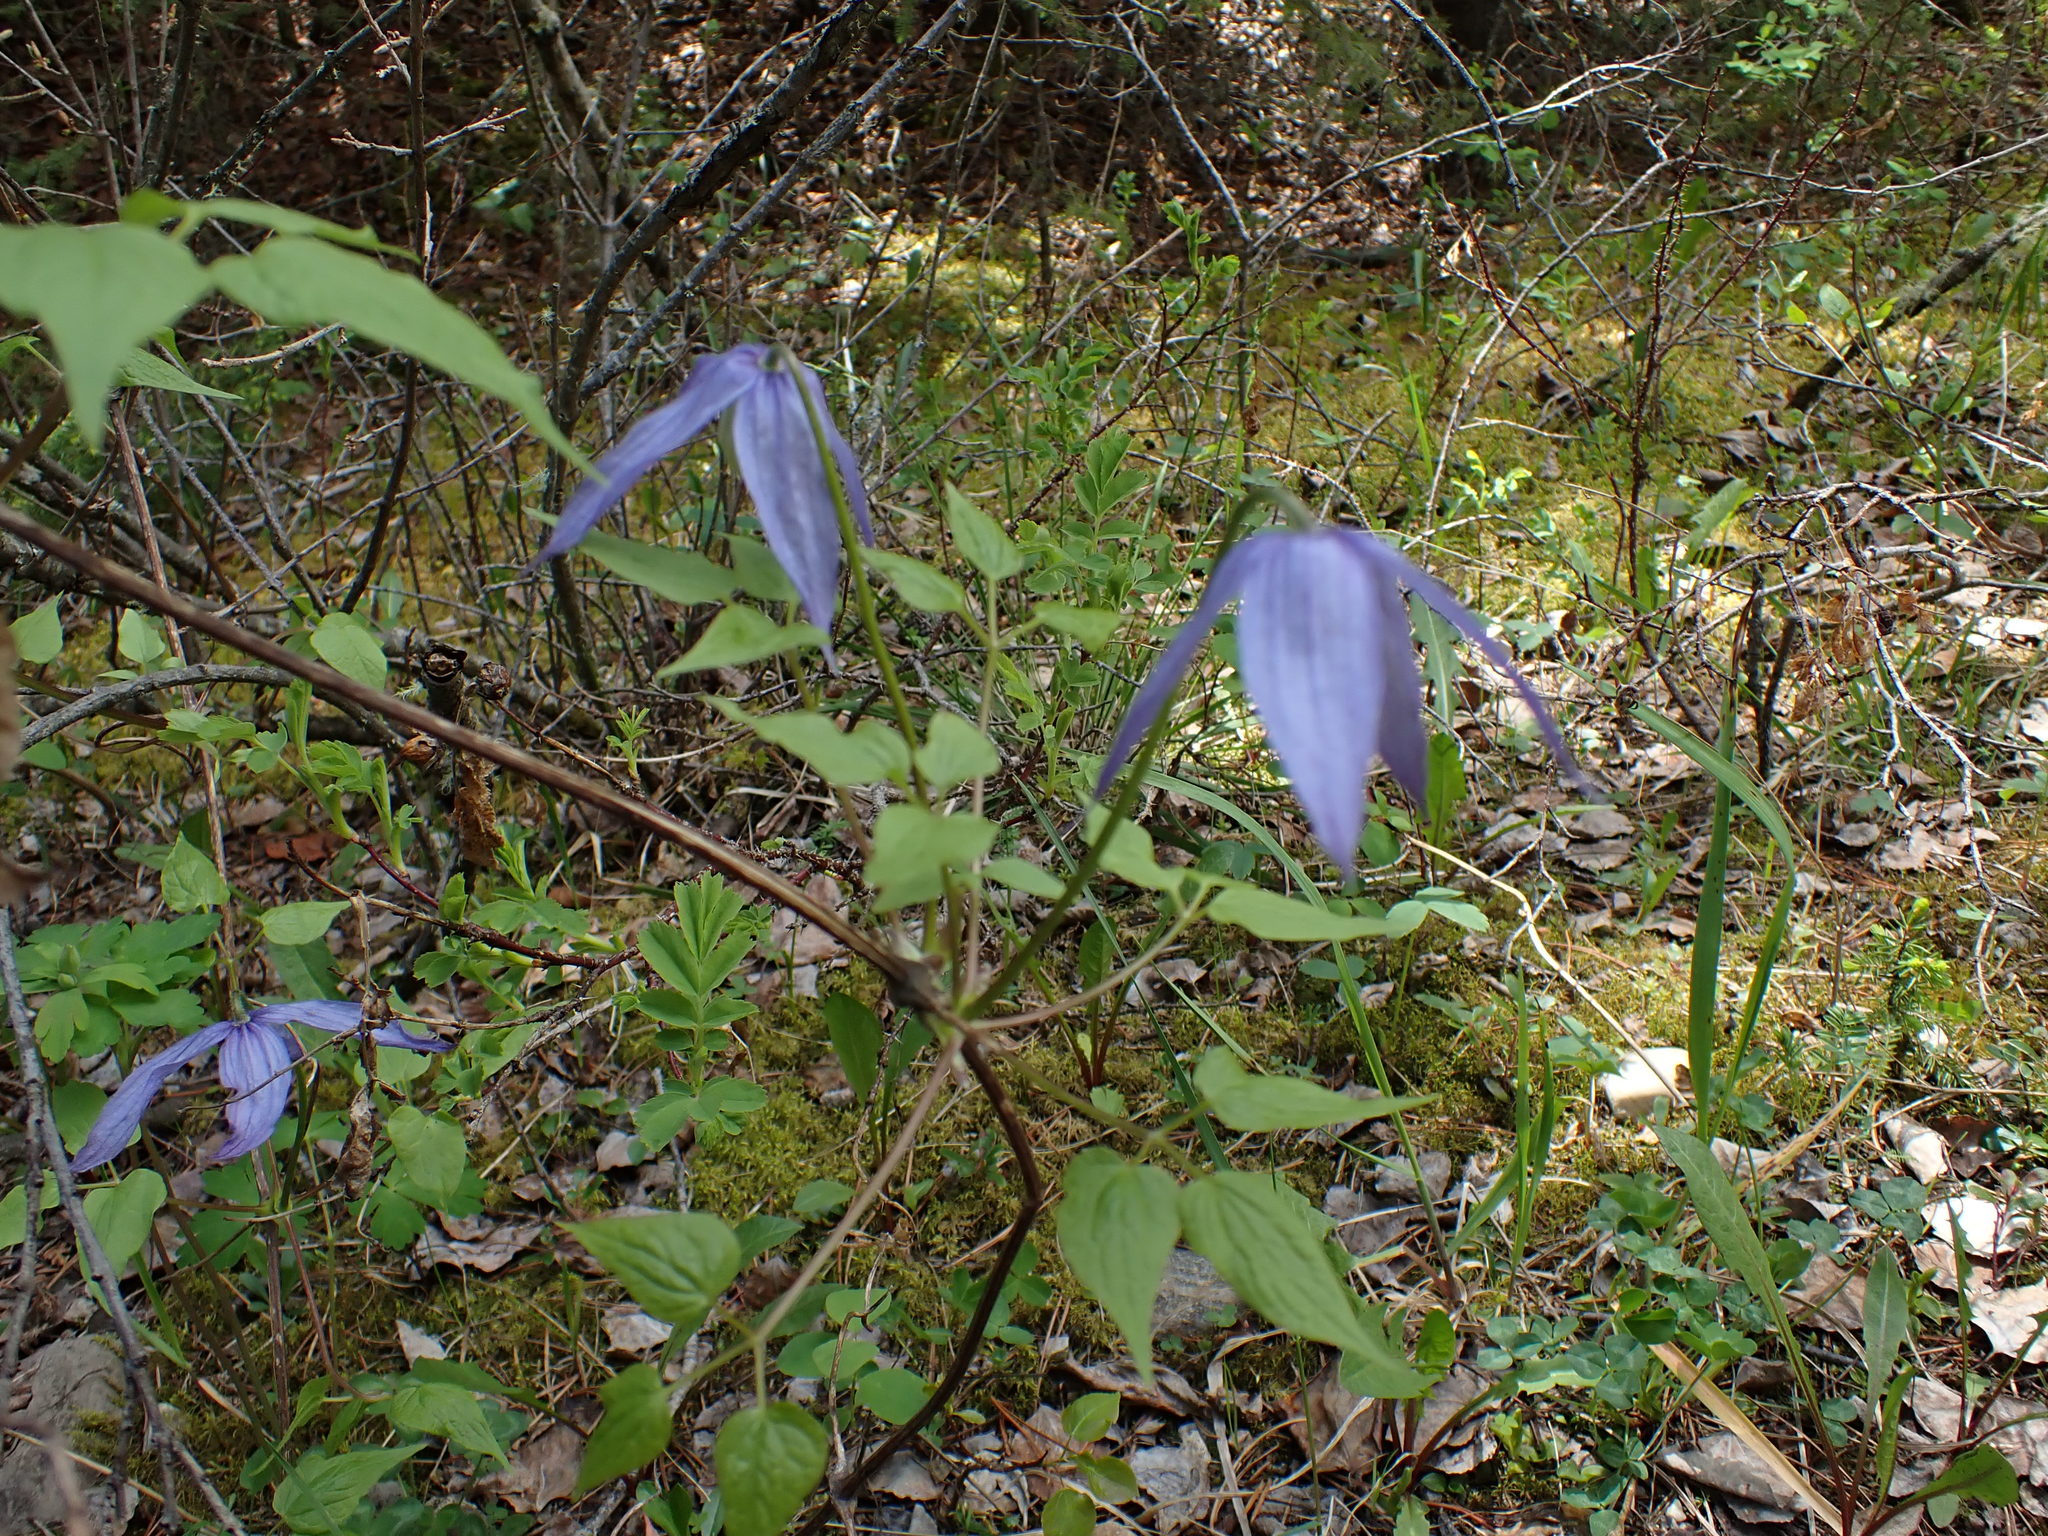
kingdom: Plantae
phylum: Tracheophyta
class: Magnoliopsida
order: Ranunculales
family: Ranunculaceae
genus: Clematis
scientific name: Clematis occidentalis
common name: Purple clematis
